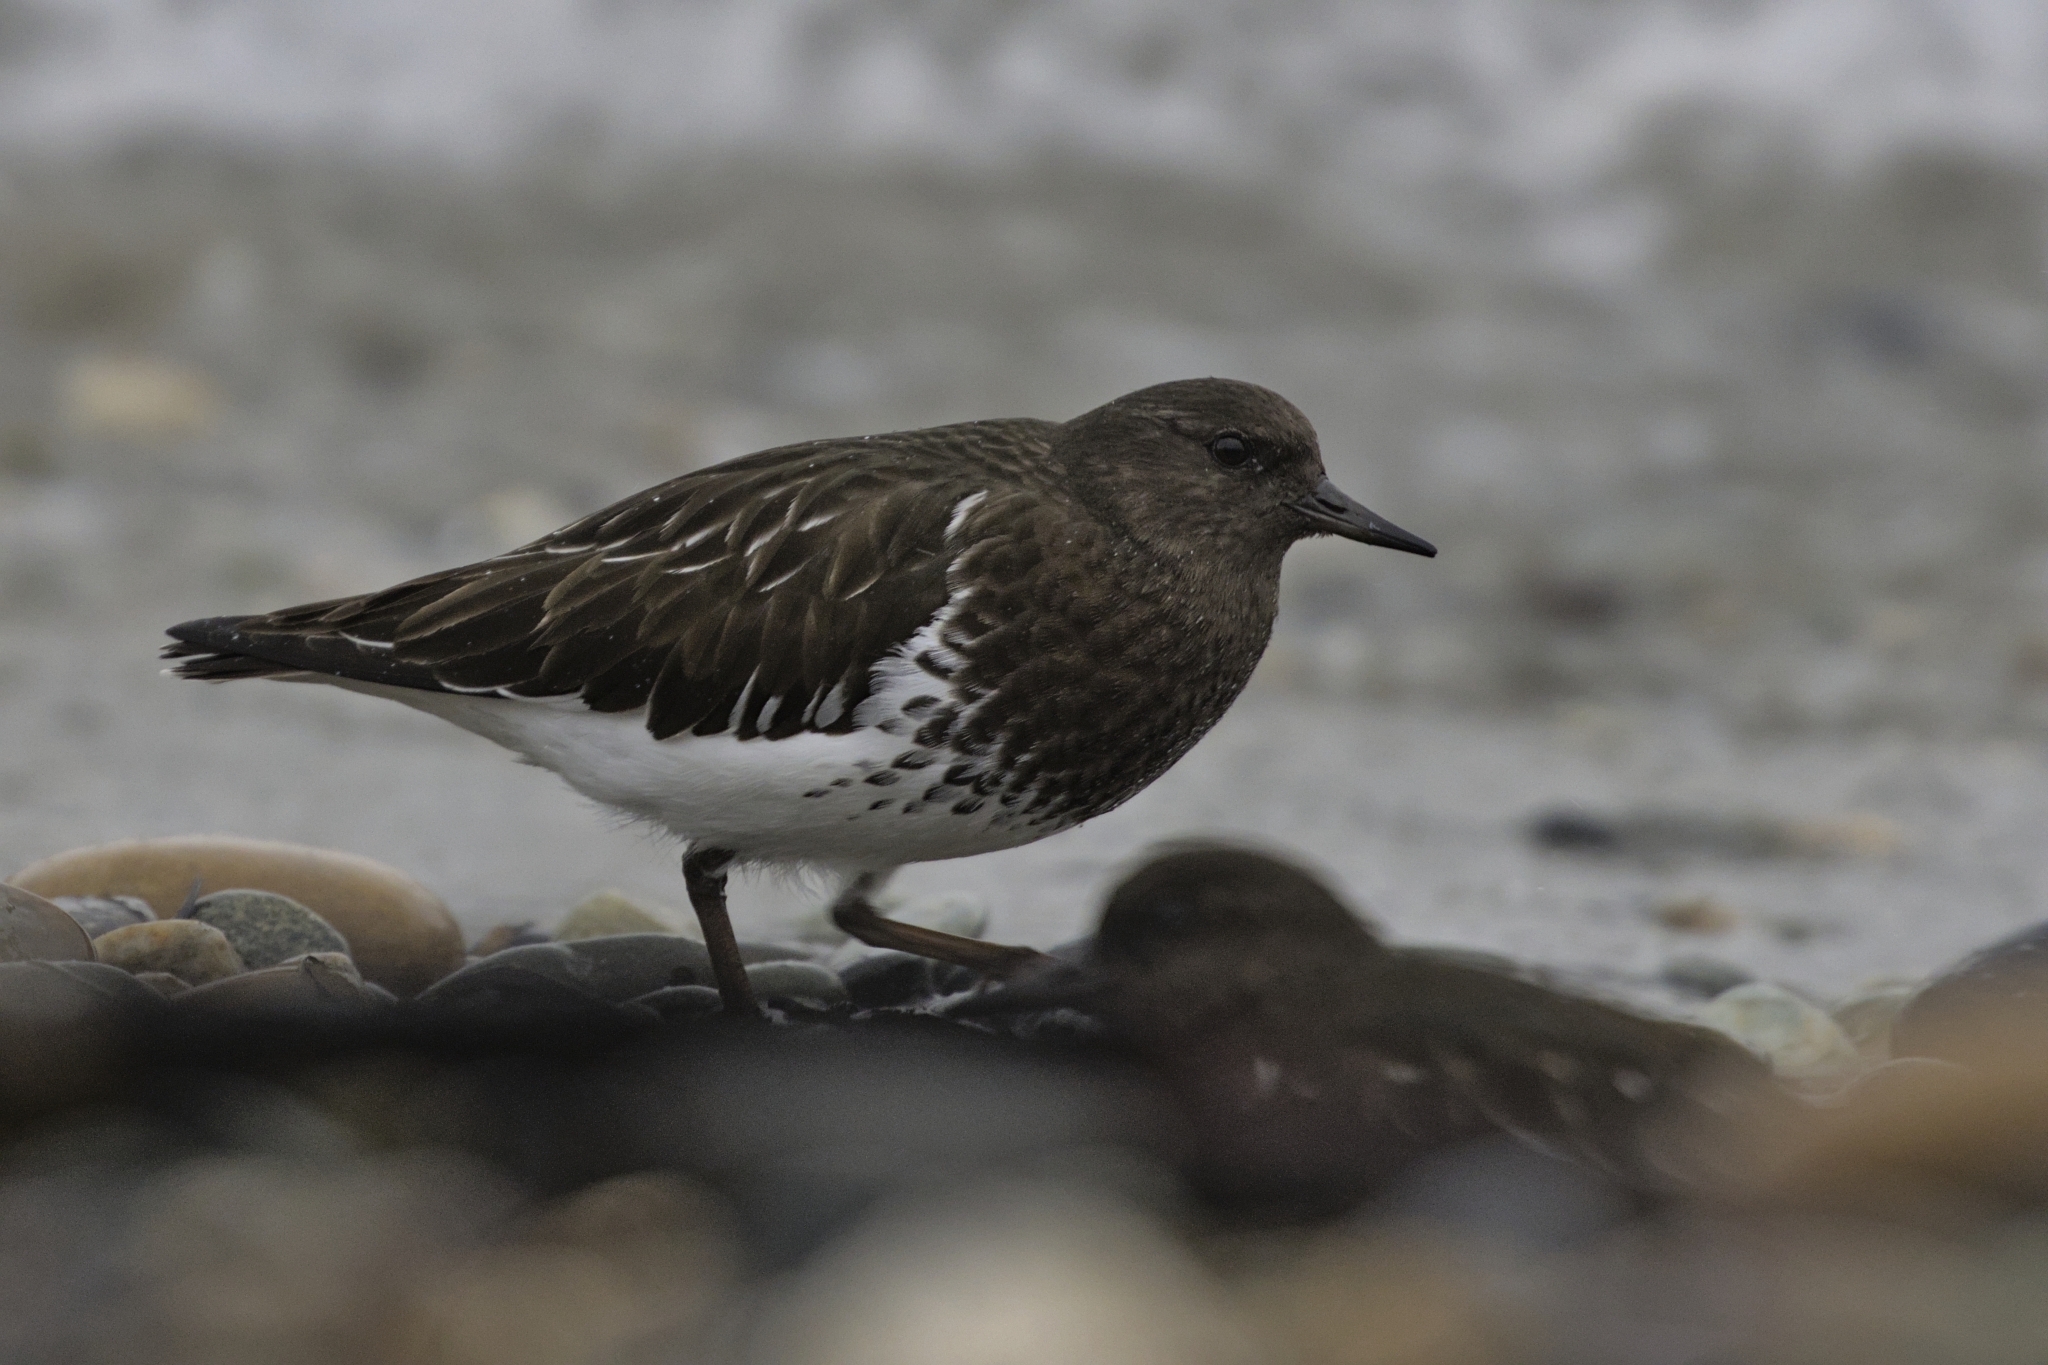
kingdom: Animalia
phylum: Chordata
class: Aves
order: Charadriiformes
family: Scolopacidae
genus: Arenaria
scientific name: Arenaria melanocephala
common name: Black turnstone
